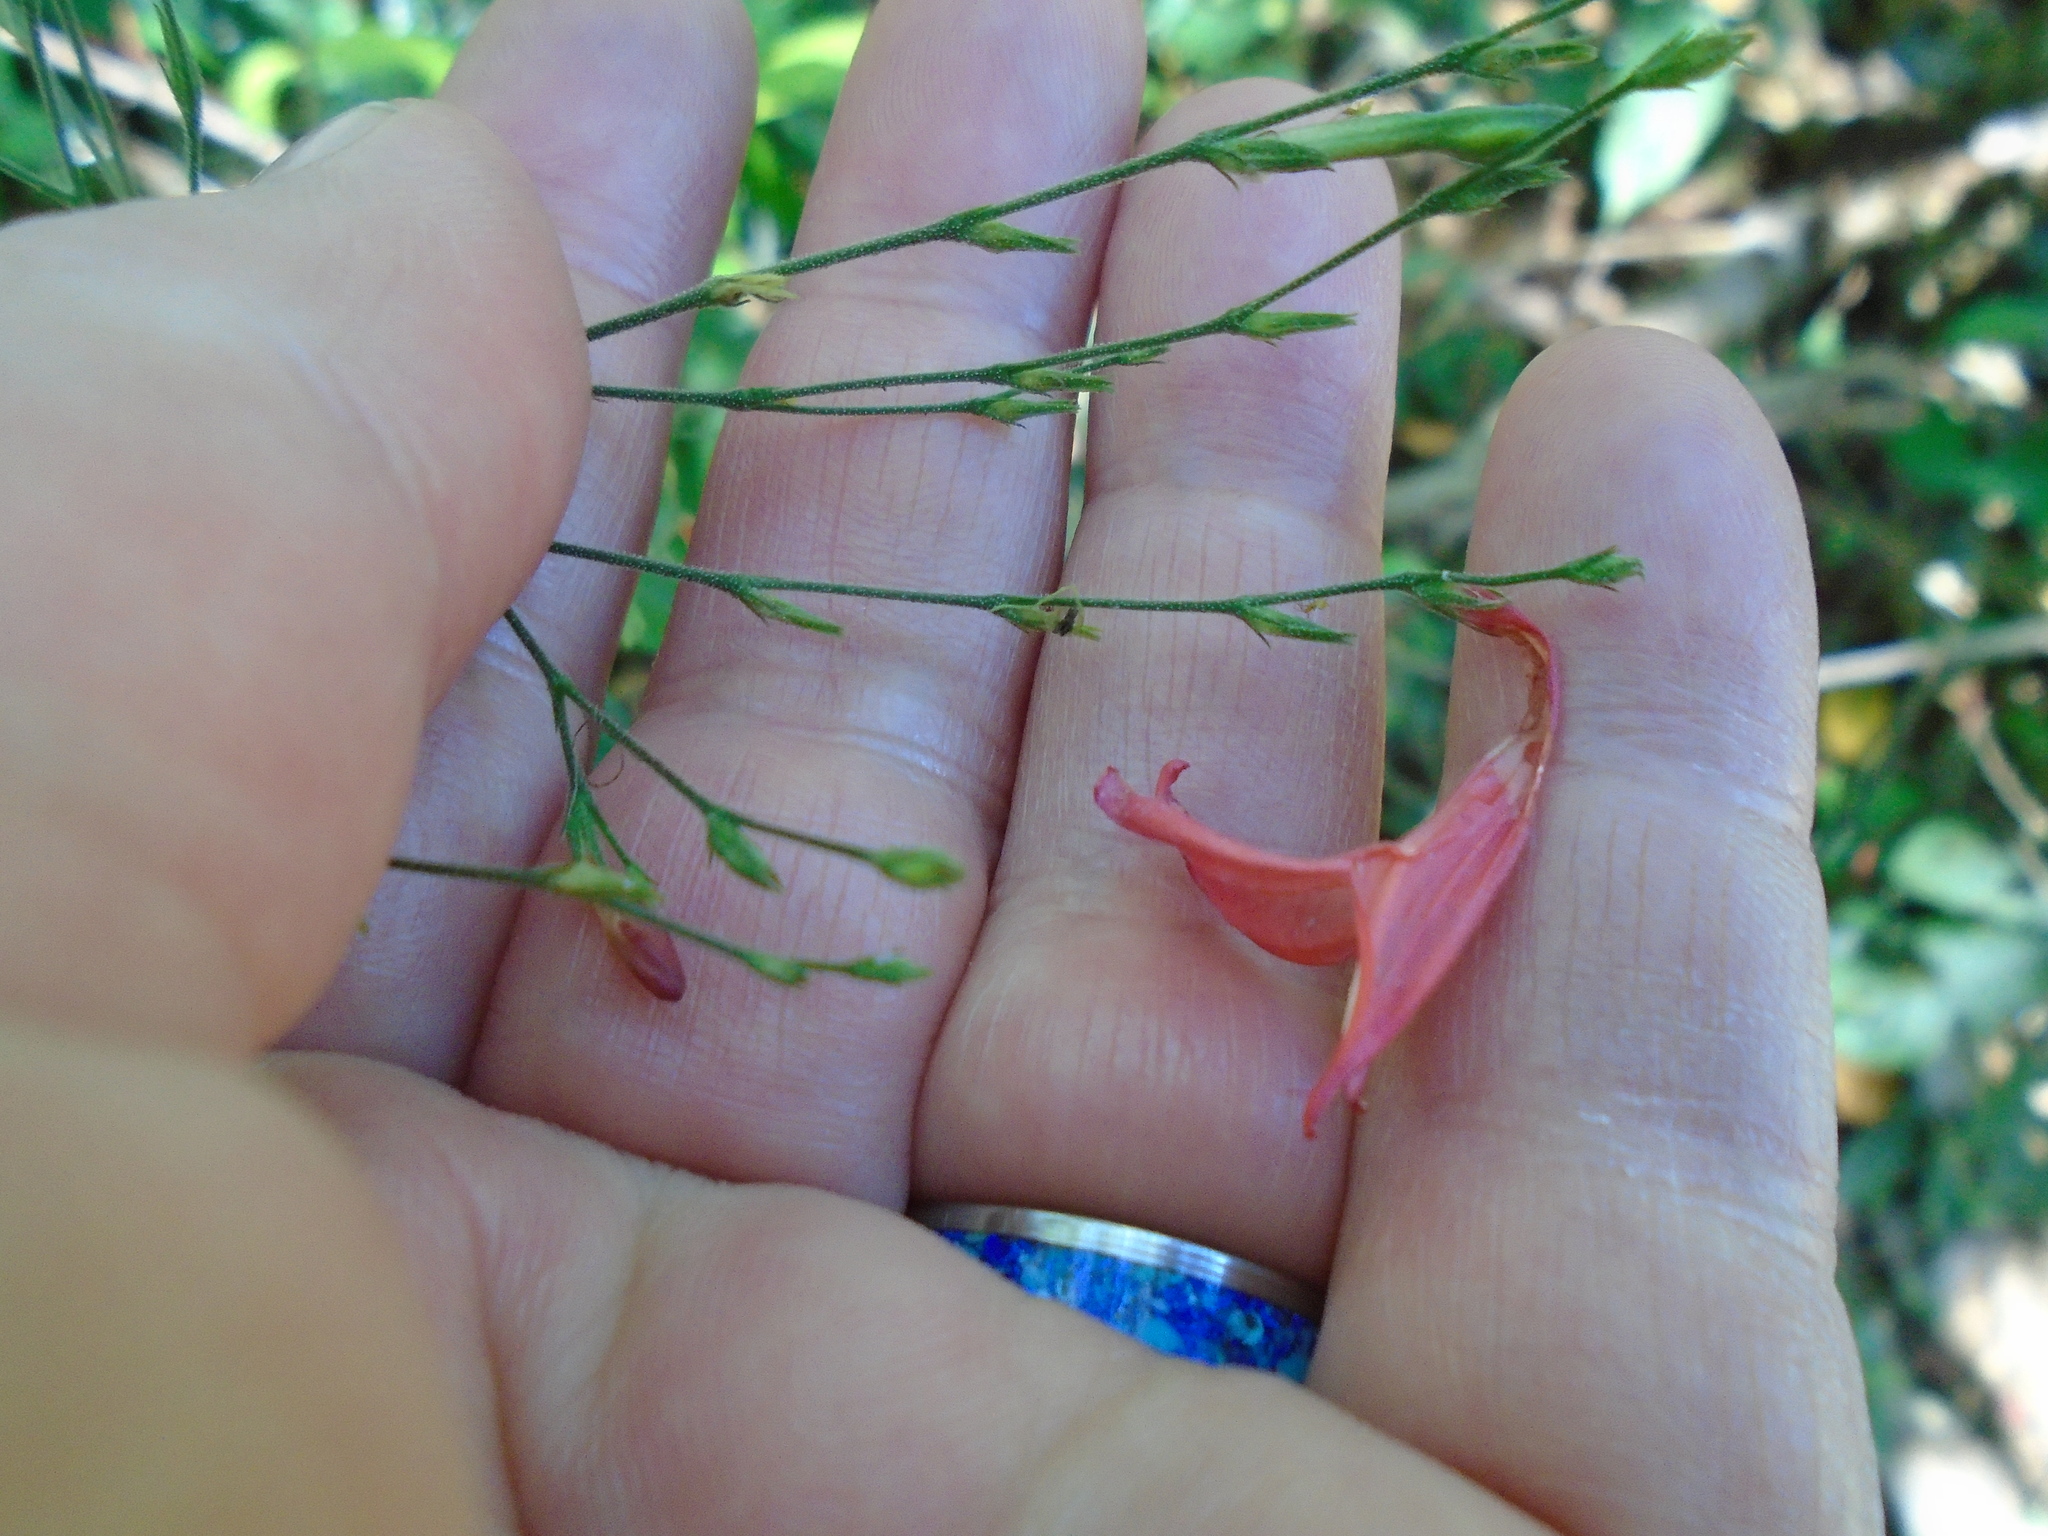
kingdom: Plantae
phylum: Tracheophyta
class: Magnoliopsida
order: Lamiales
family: Acanthaceae
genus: Dianthera
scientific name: Dianthera glabra
